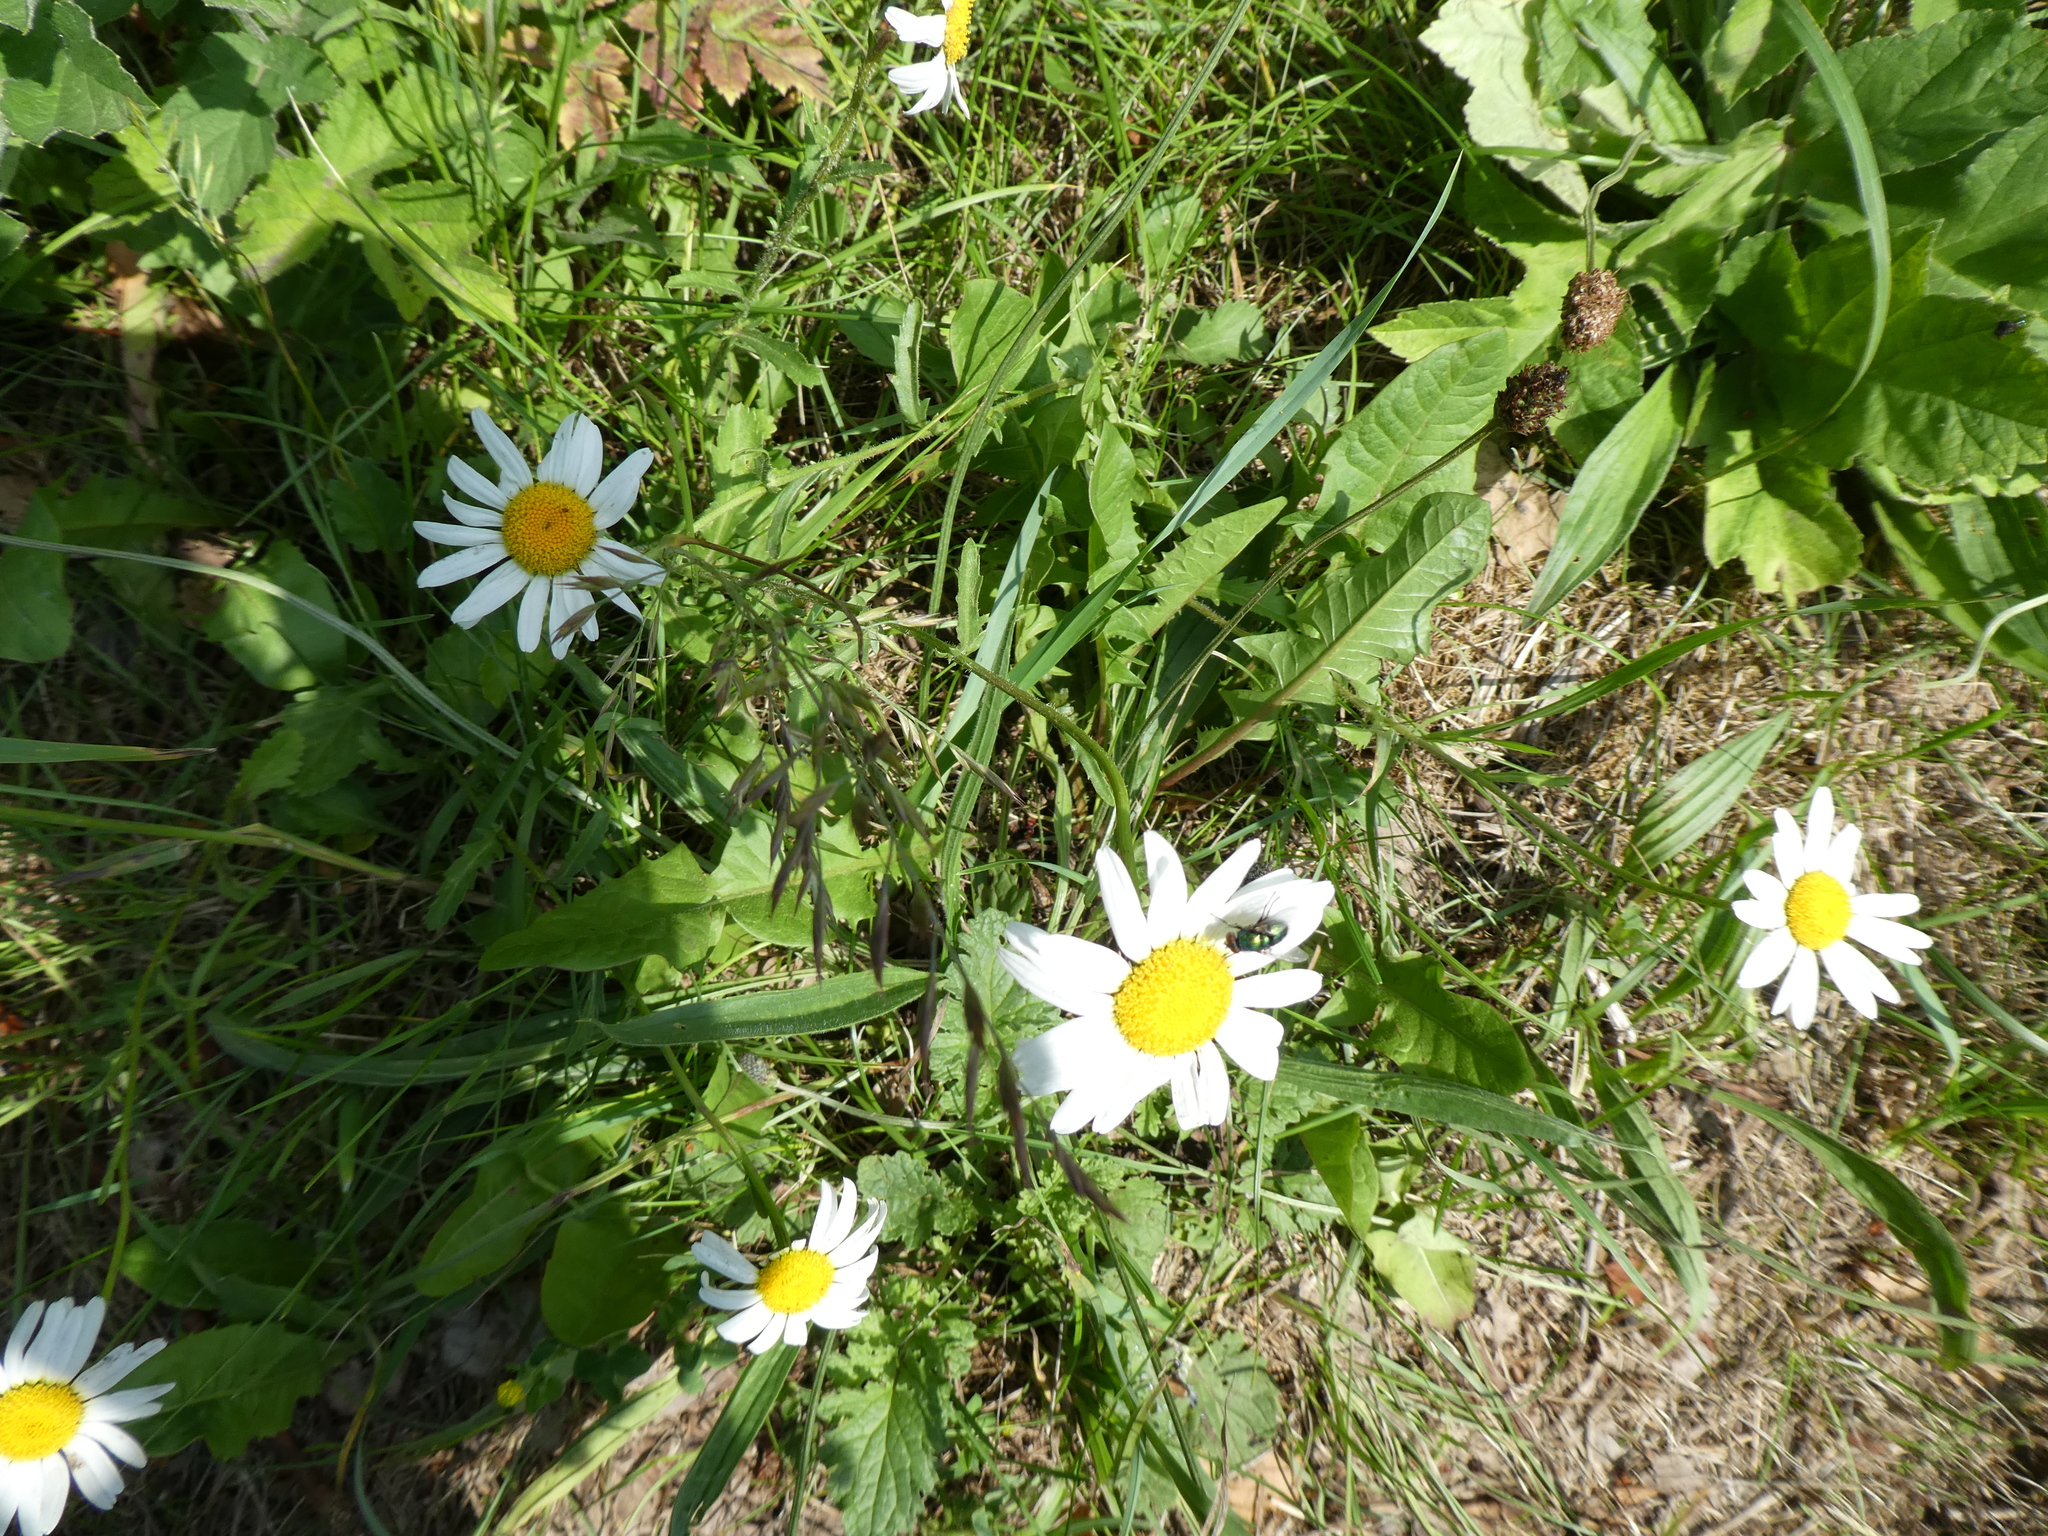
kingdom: Plantae
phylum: Tracheophyta
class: Magnoliopsida
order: Asterales
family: Asteraceae
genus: Leucanthemum
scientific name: Leucanthemum vulgare
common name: Oxeye daisy
